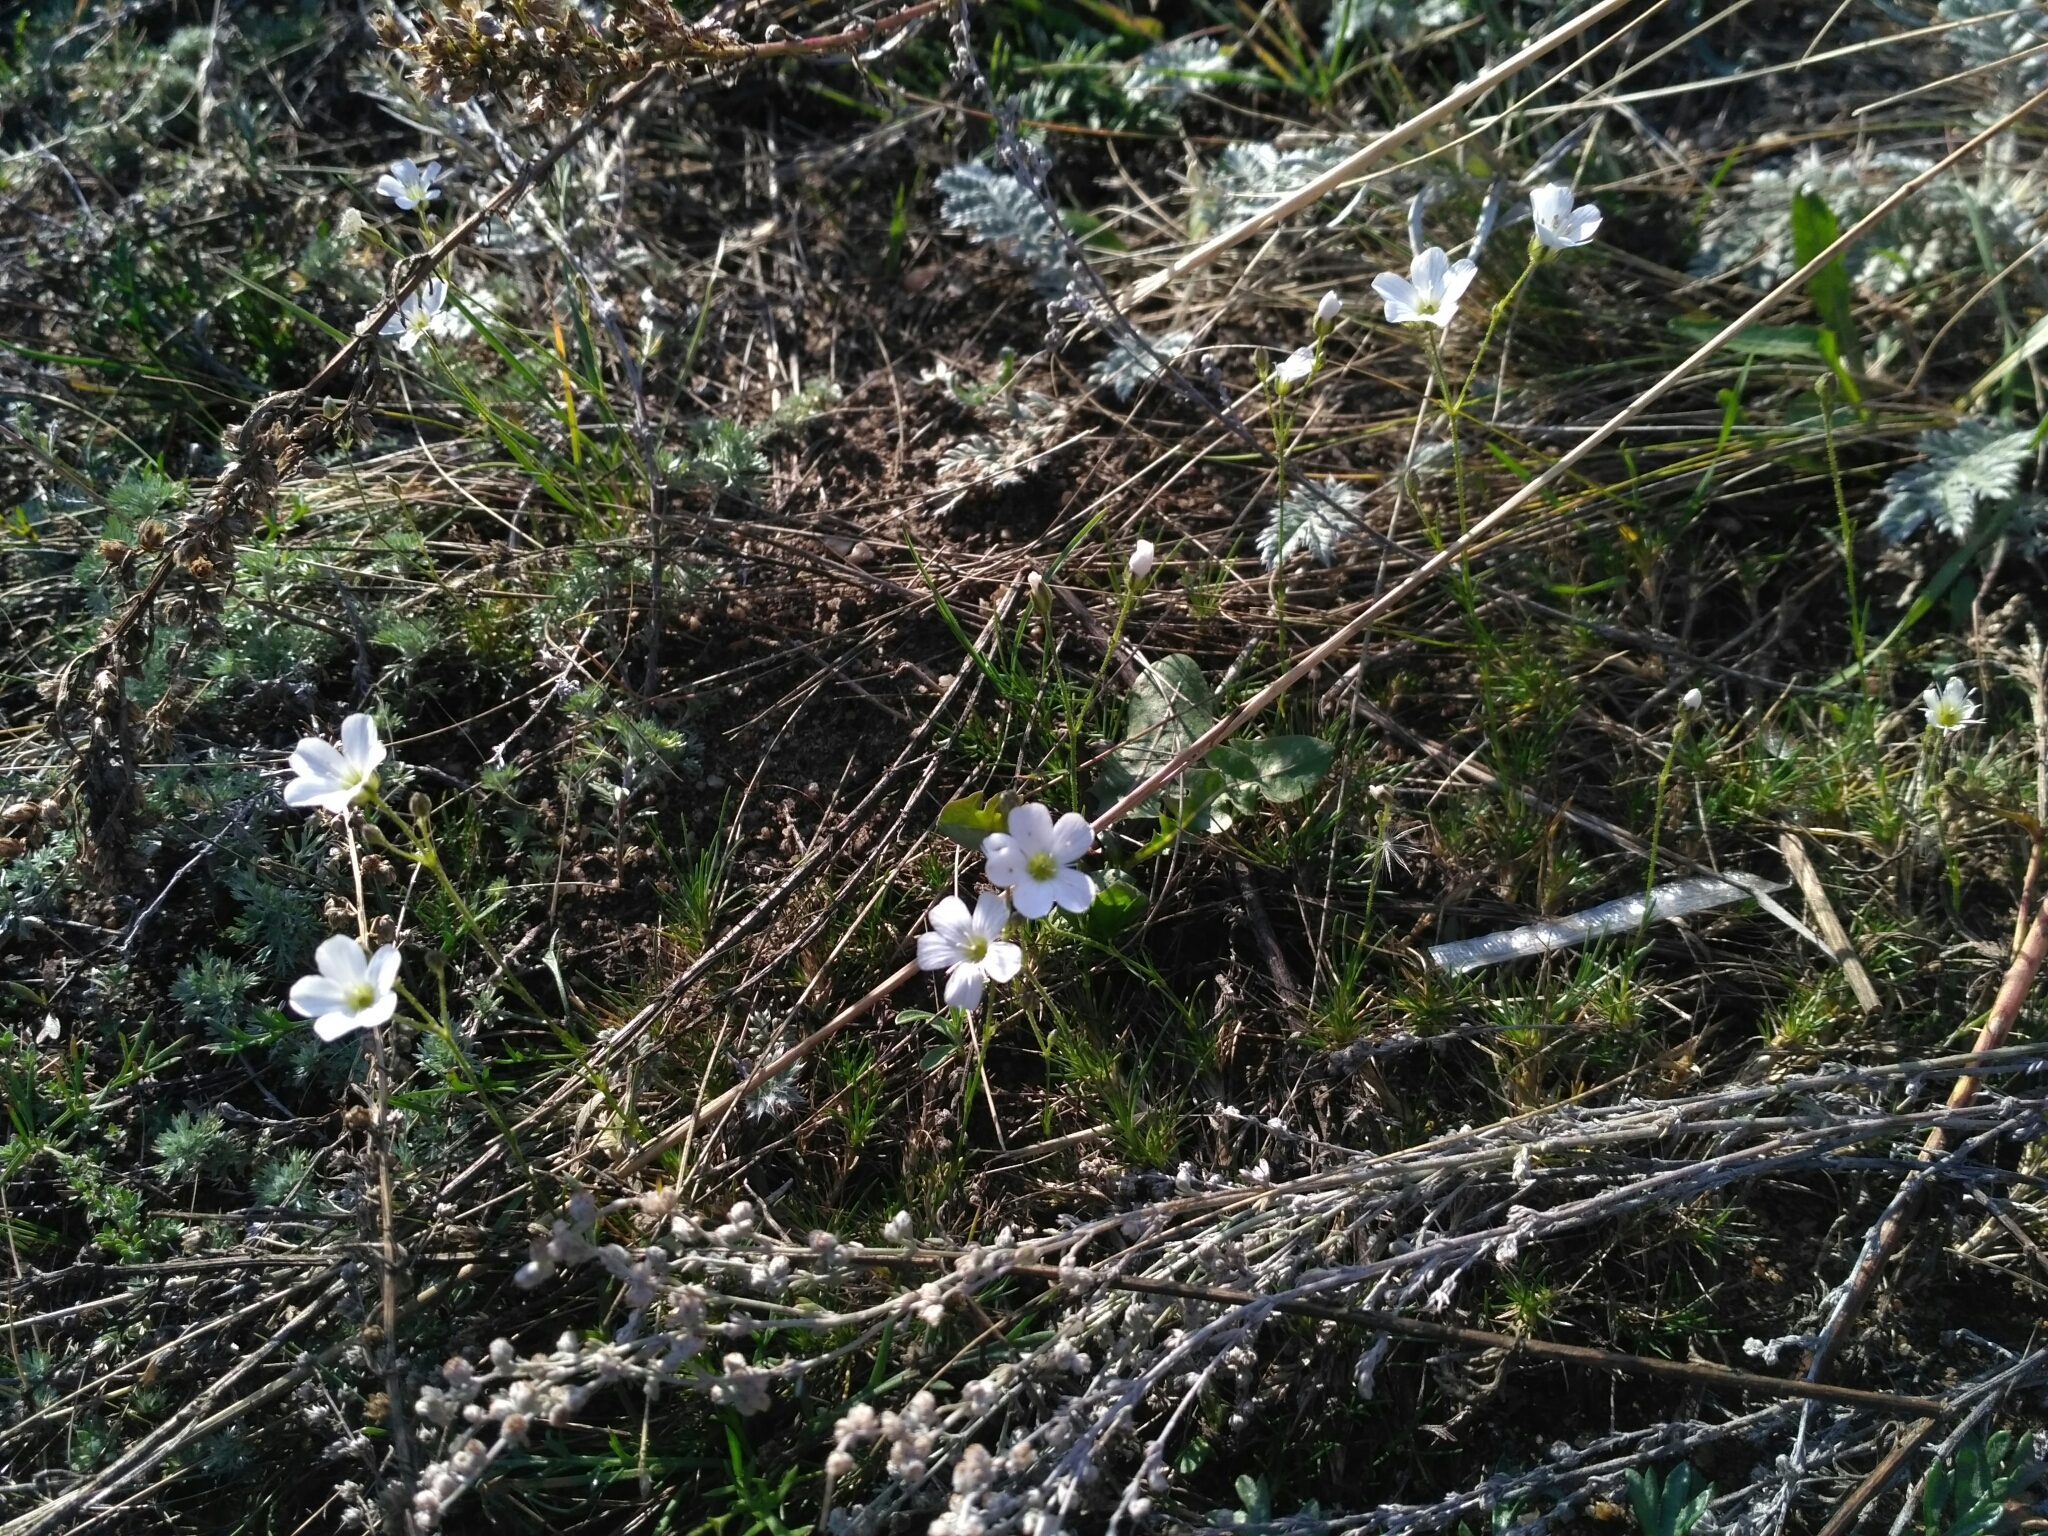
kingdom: Plantae
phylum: Tracheophyta
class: Magnoliopsida
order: Caryophyllales
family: Caryophyllaceae
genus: Eremogone
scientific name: Eremogone meyeri
